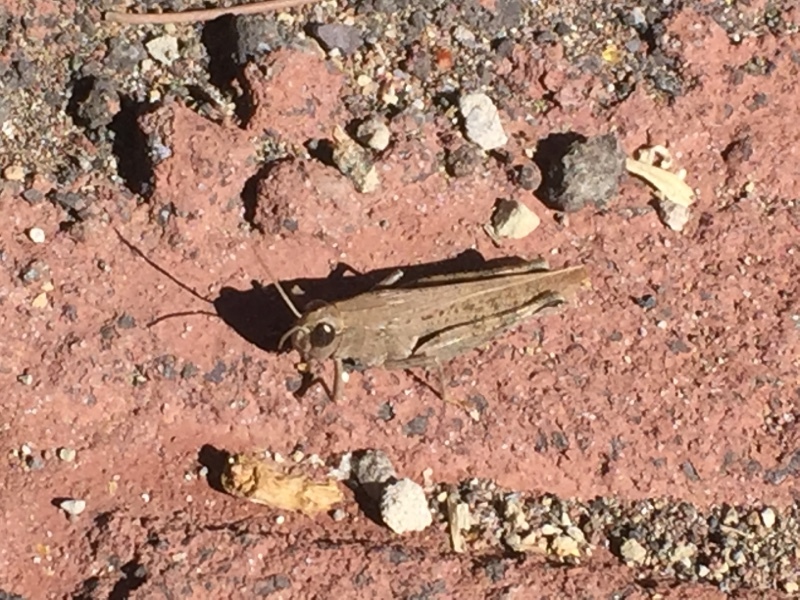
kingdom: Animalia
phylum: Arthropoda
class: Insecta
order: Orthoptera
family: Acrididae
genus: Calliptamus
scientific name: Calliptamus plebeius
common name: Canarian pincer grasshopper
